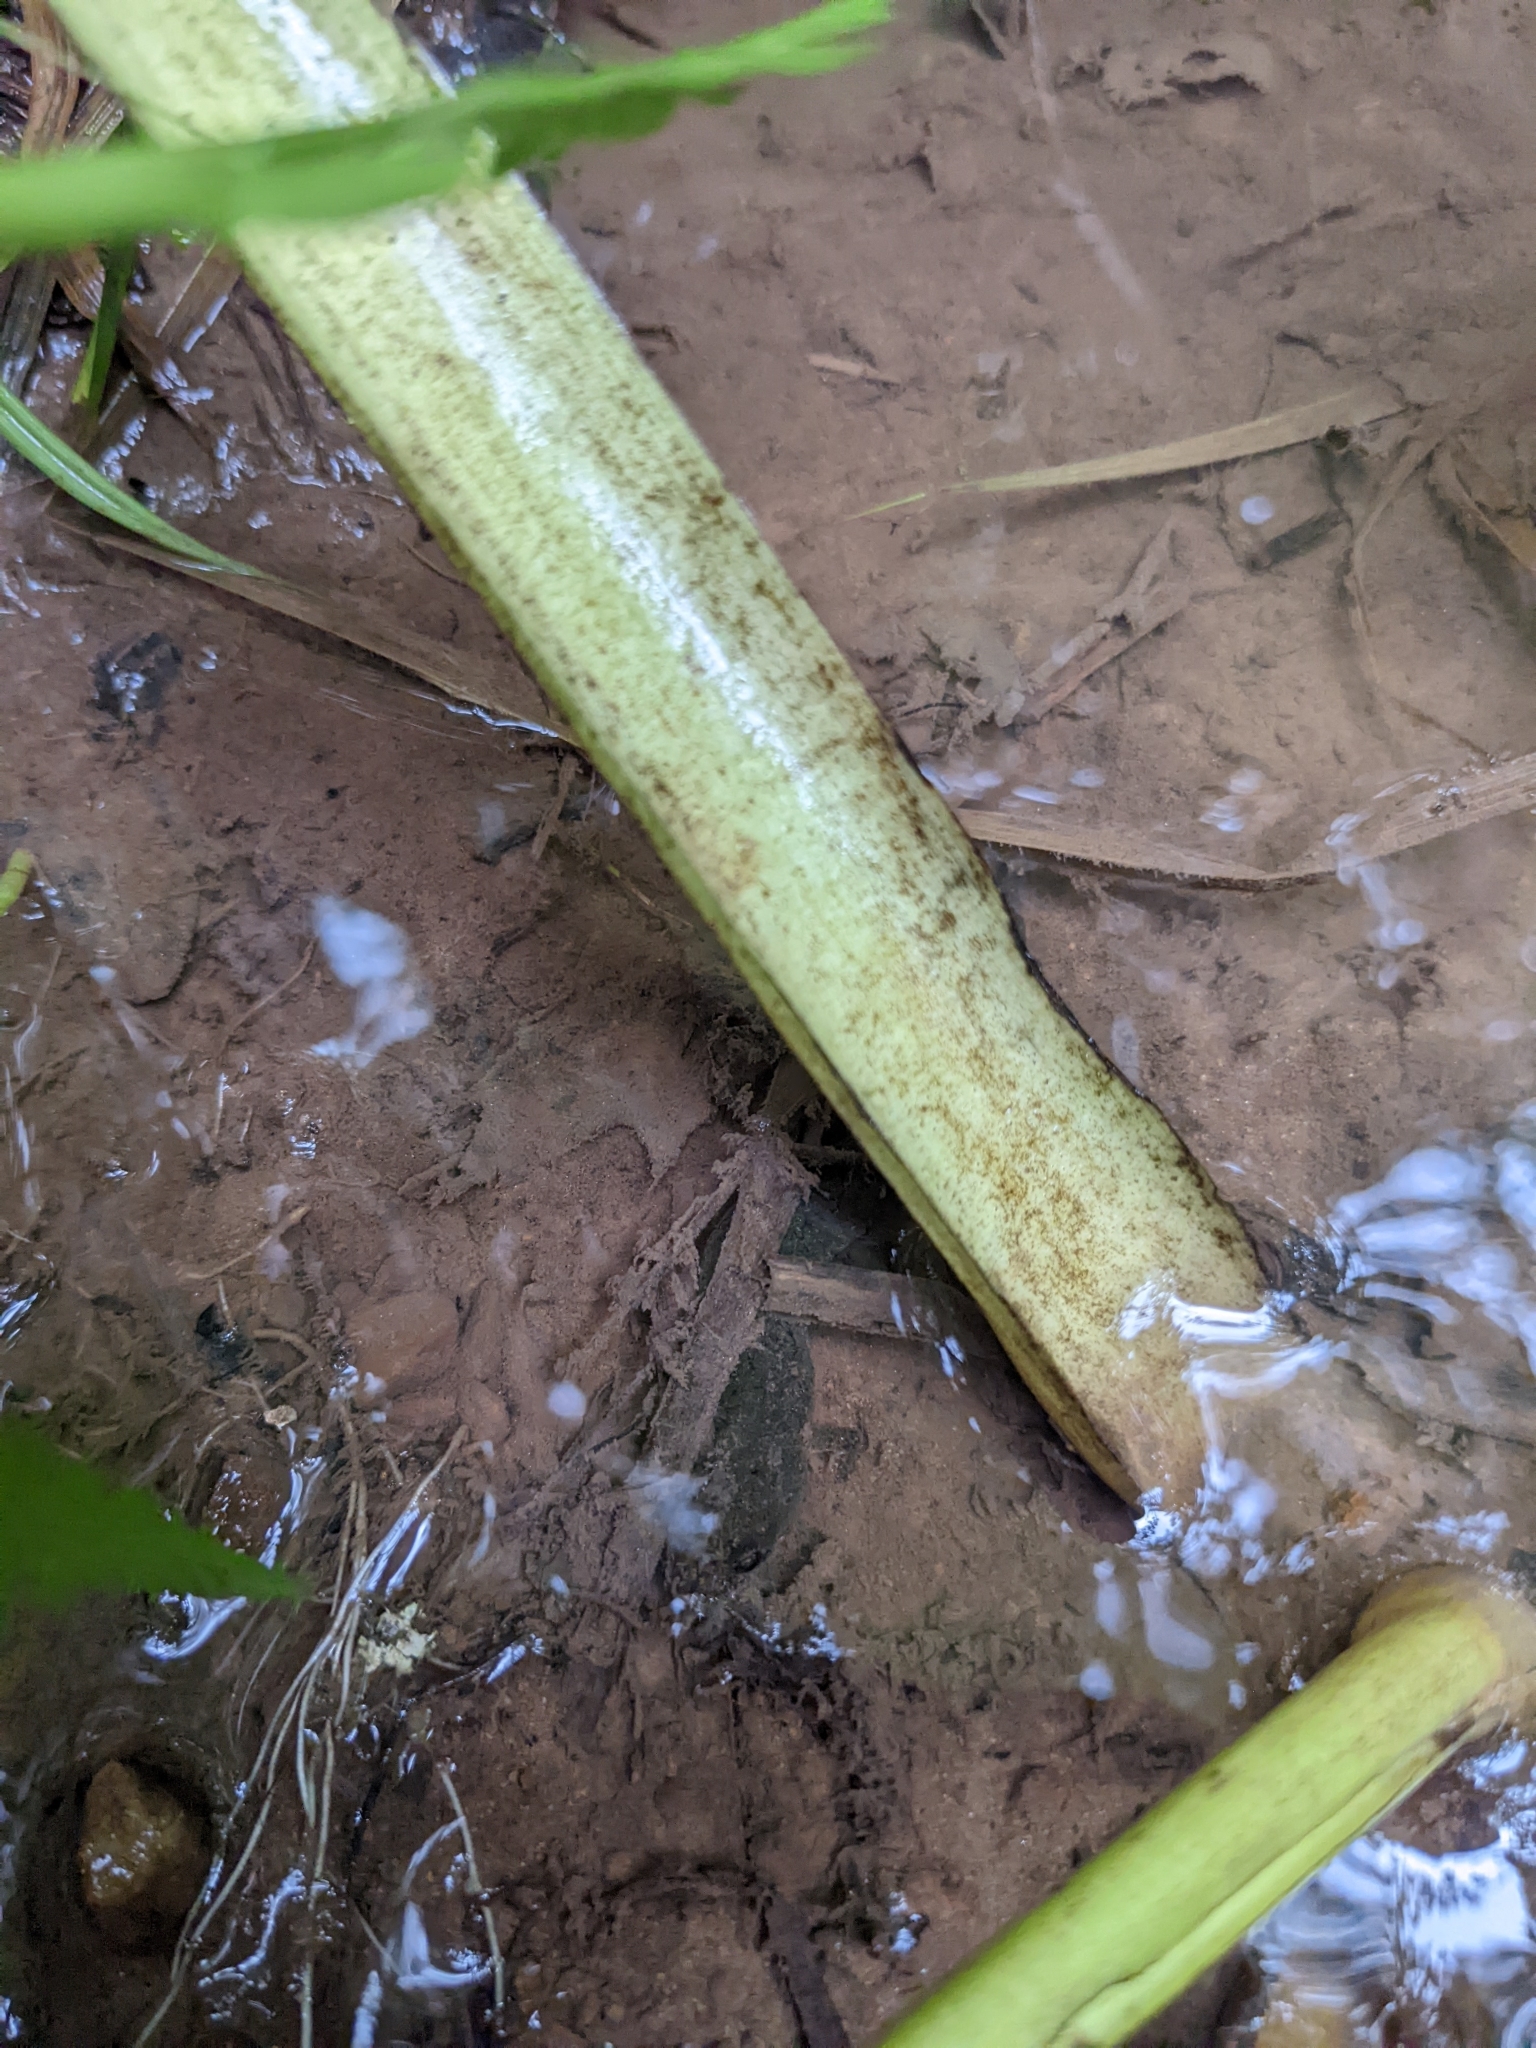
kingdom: Animalia
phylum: Chordata
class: Amphibia
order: Caudata
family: Plethodontidae
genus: Desmognathus
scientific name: Desmognathus fuscus
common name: Northern dusky salamander
